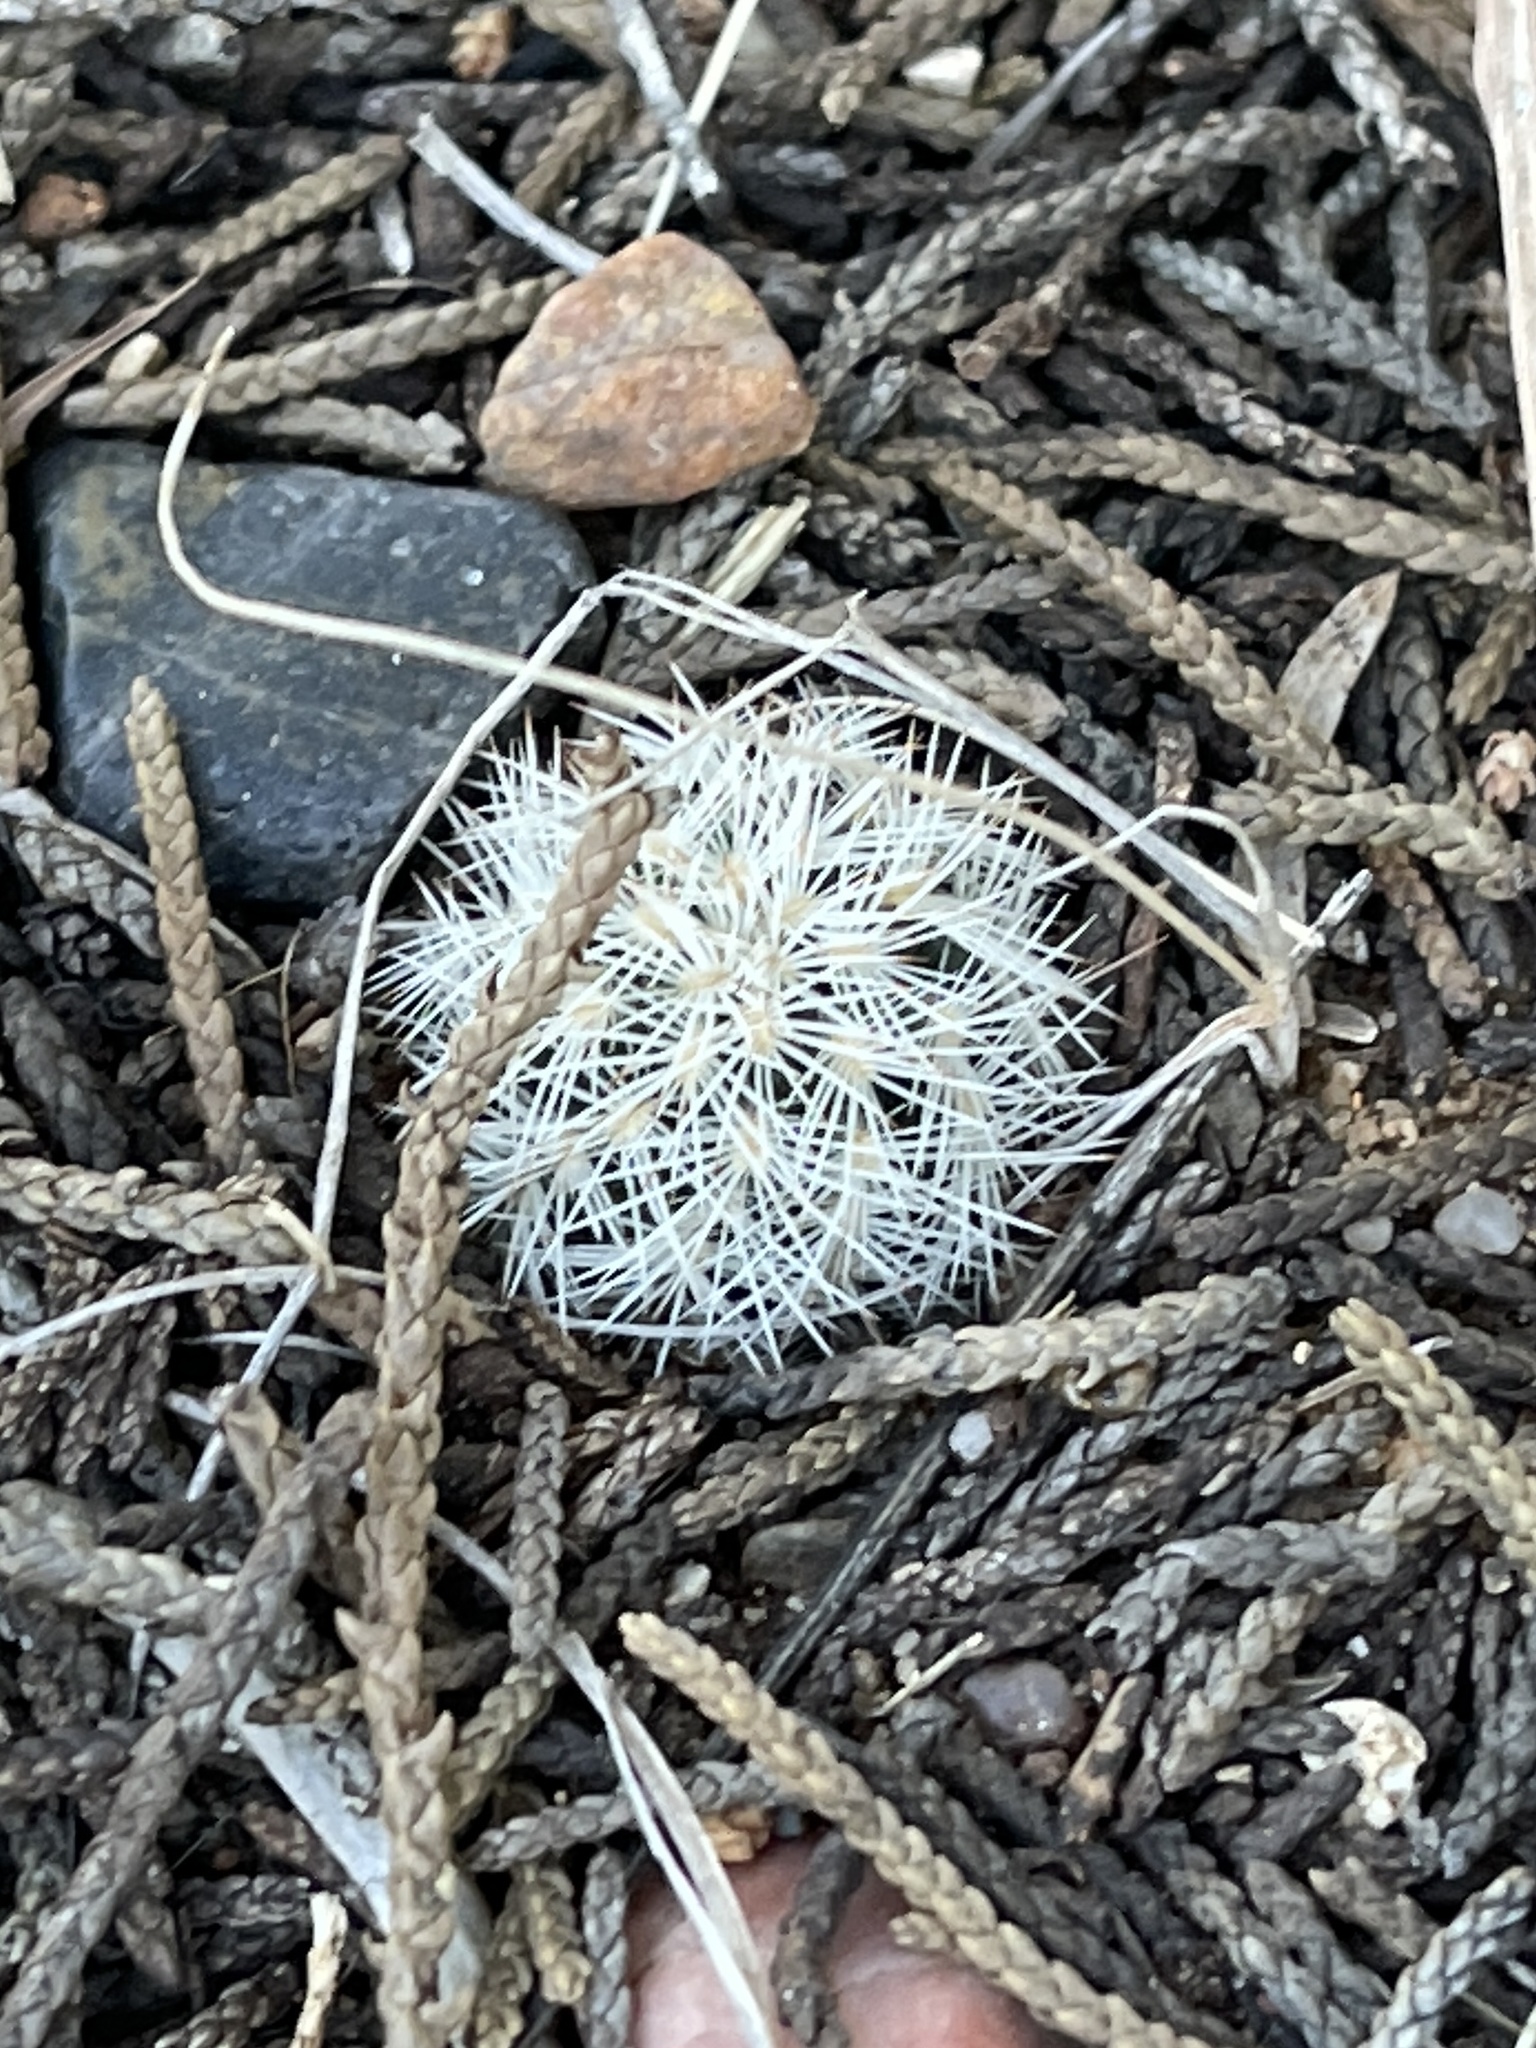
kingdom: Plantae
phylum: Tracheophyta
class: Magnoliopsida
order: Caryophyllales
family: Cactaceae
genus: Echinocereus
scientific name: Echinocereus reichenbachii
